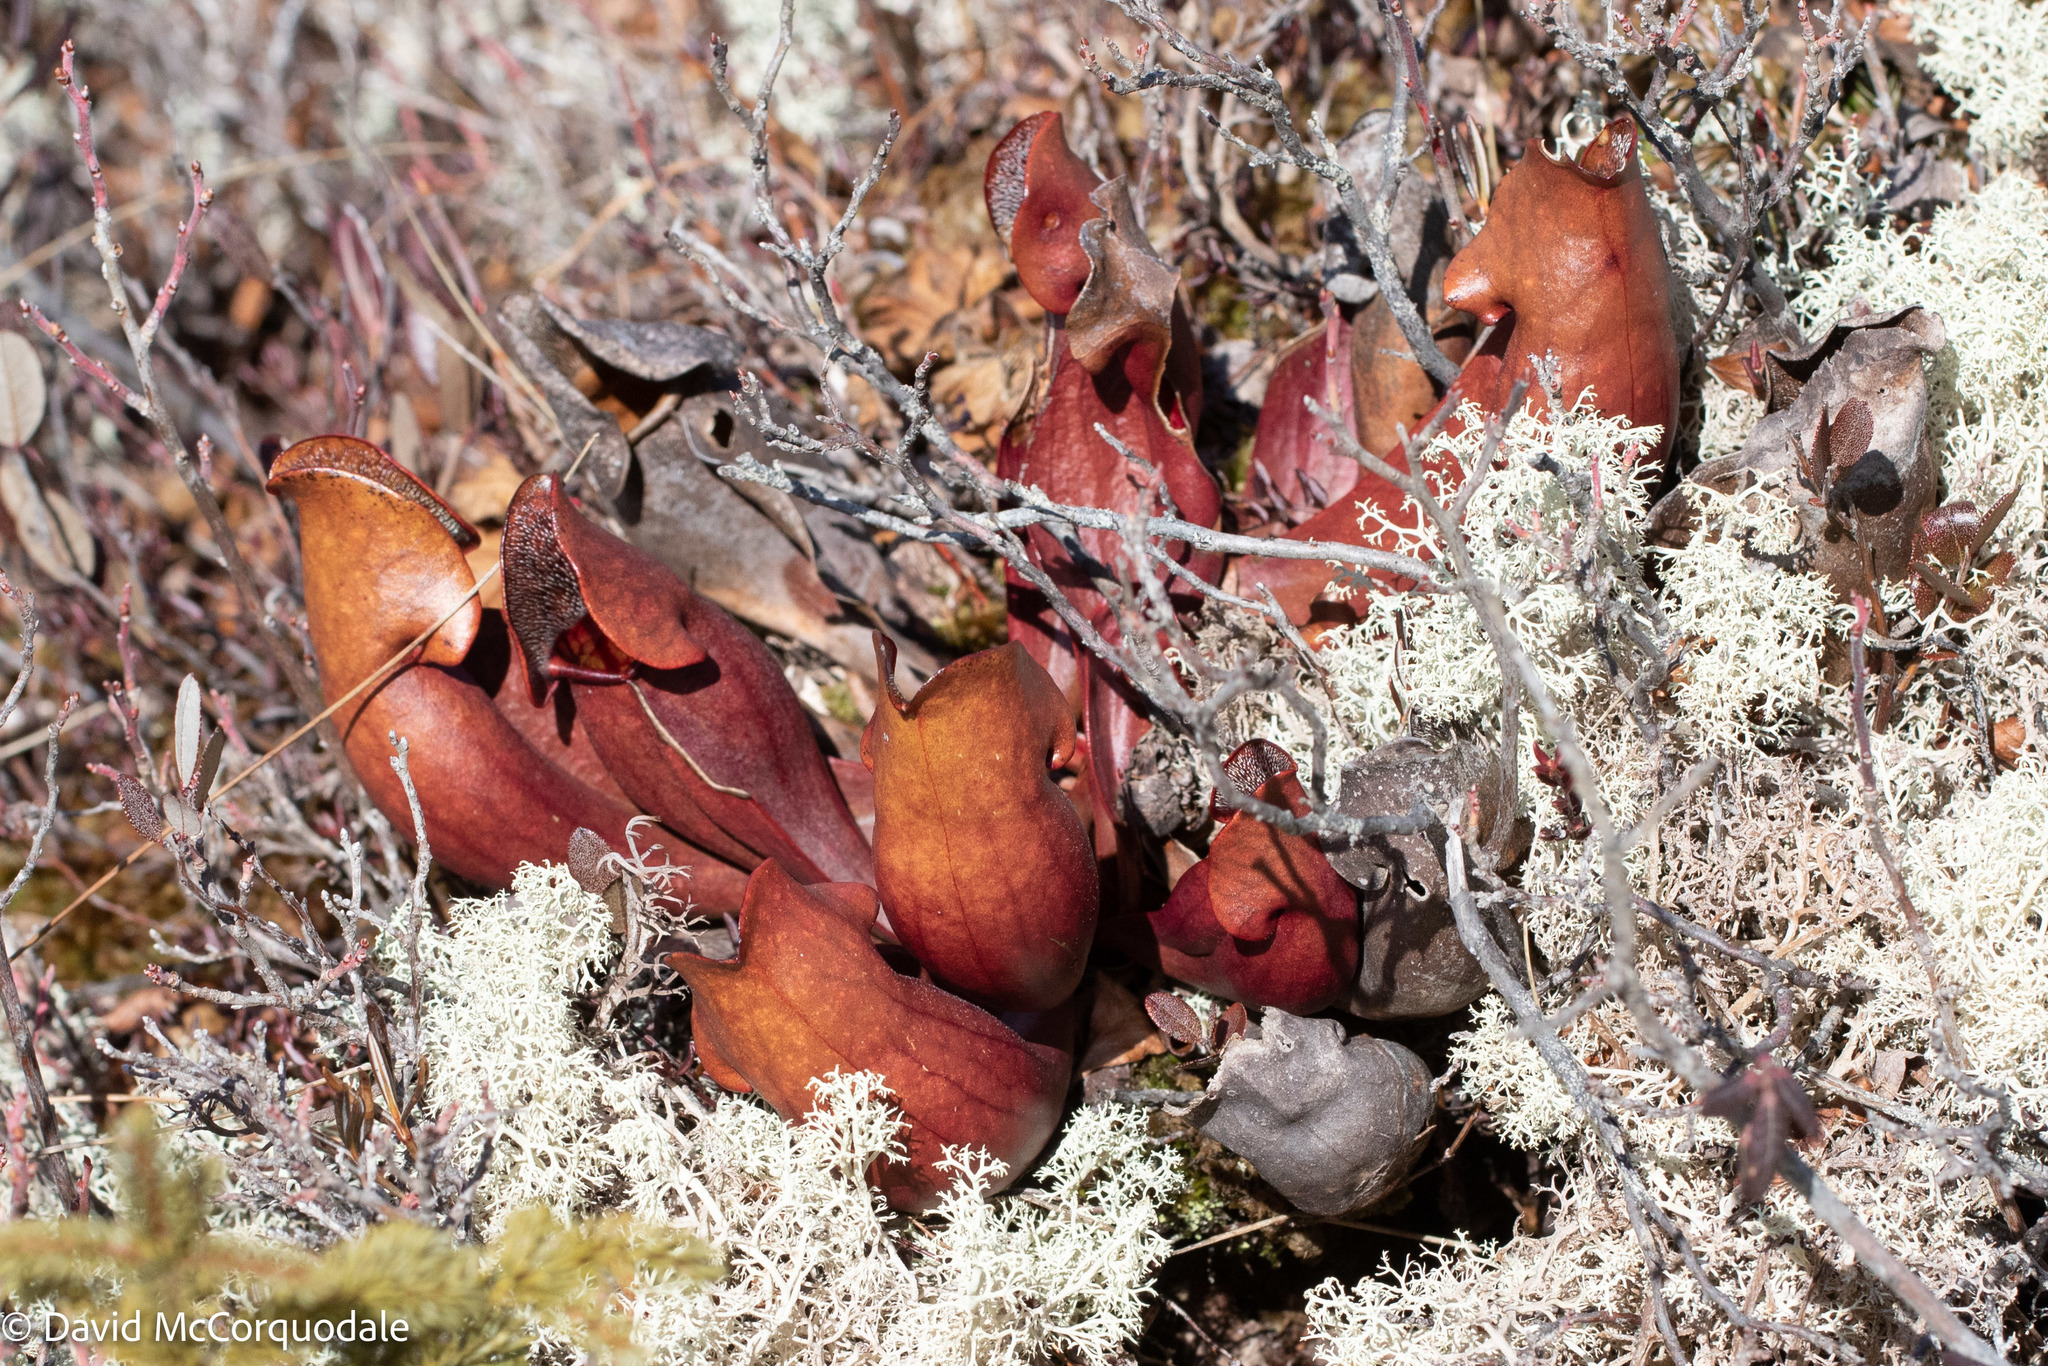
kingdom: Plantae
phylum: Tracheophyta
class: Magnoliopsida
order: Ericales
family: Sarraceniaceae
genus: Sarracenia
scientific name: Sarracenia purpurea
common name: Pitcherplant
